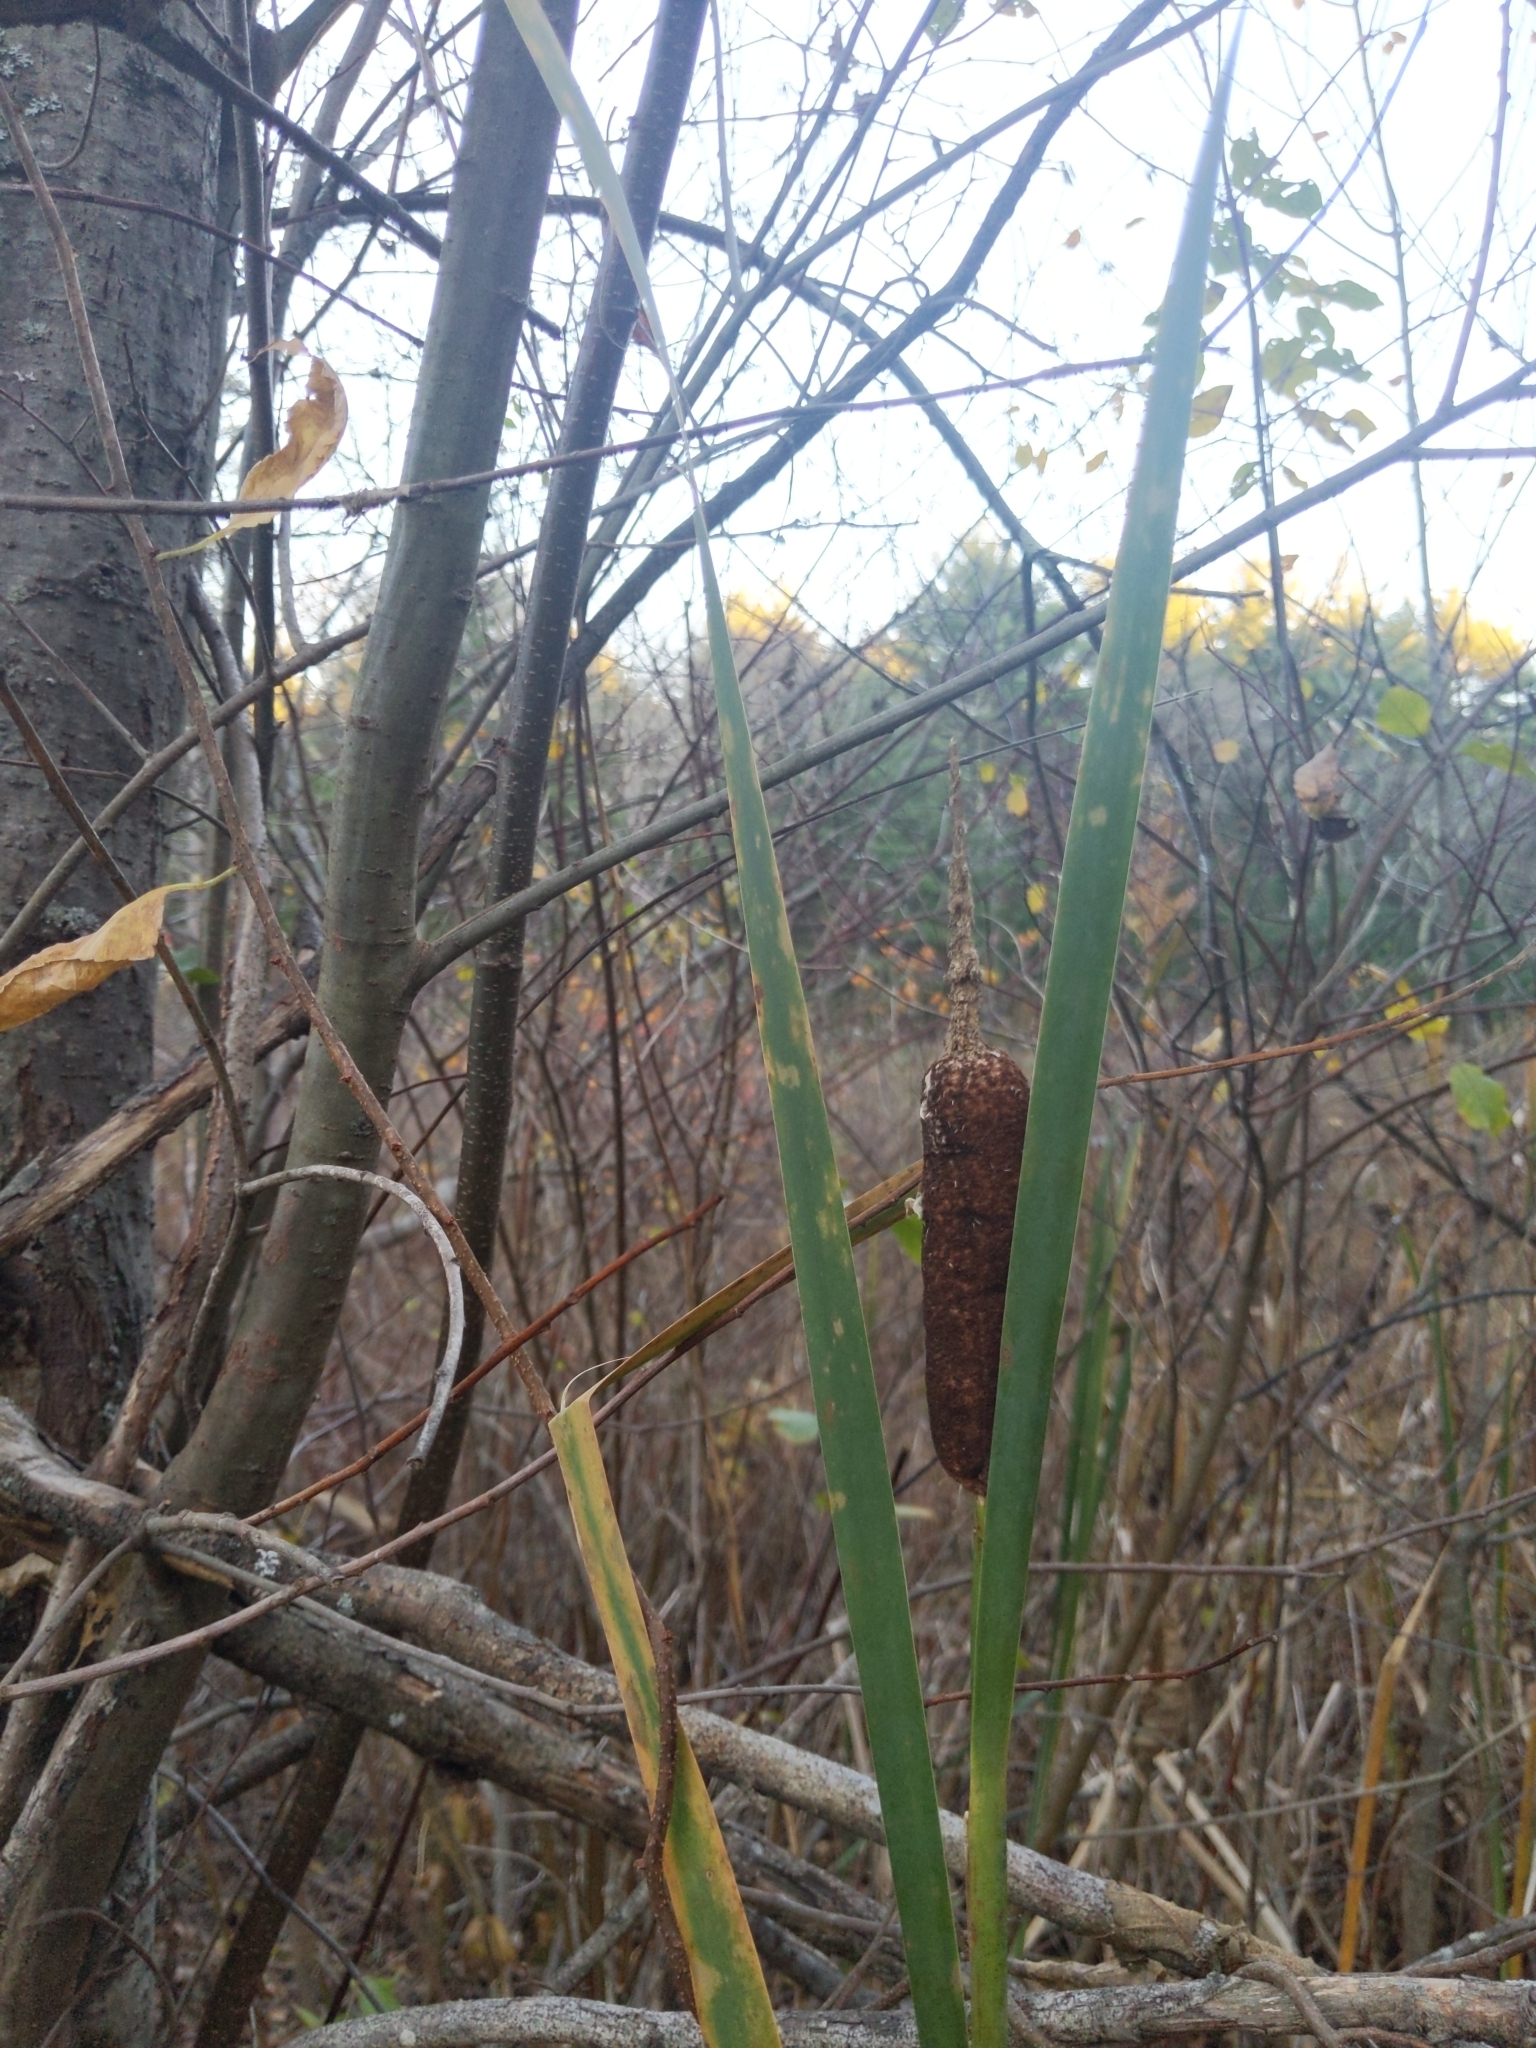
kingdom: Plantae
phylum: Tracheophyta
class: Liliopsida
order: Poales
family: Typhaceae
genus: Typha
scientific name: Typha latifolia
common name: Broadleaf cattail
